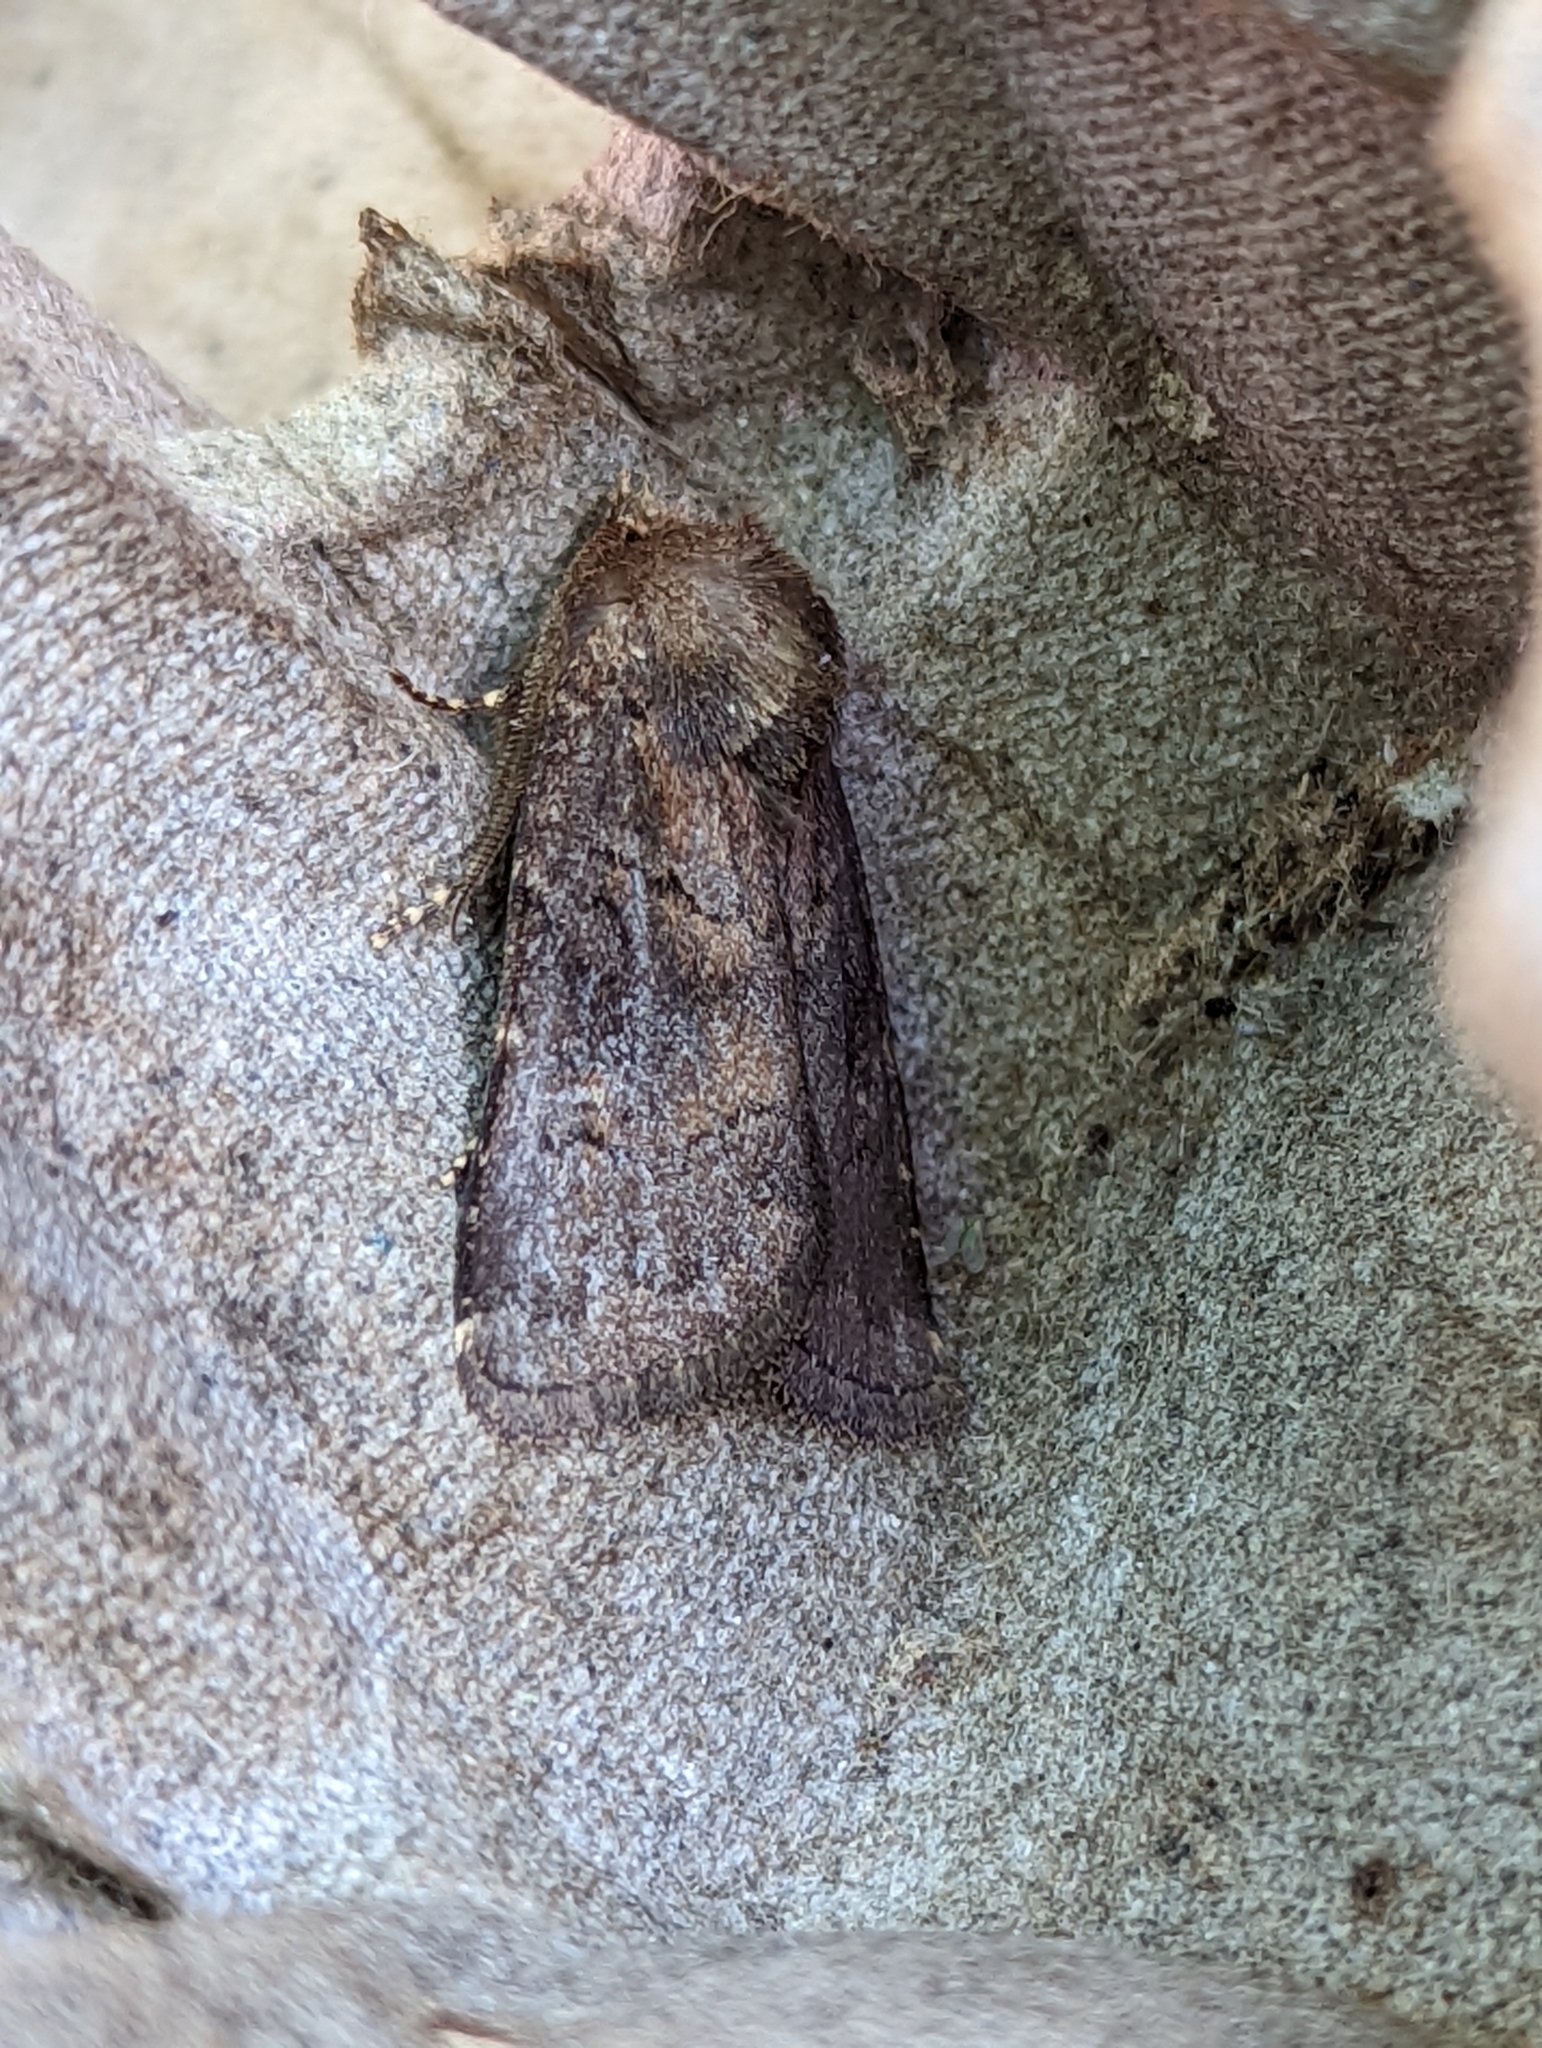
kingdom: Animalia
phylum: Arthropoda
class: Insecta
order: Lepidoptera
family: Noctuidae
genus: Charanyca
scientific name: Charanyca ferruginea
